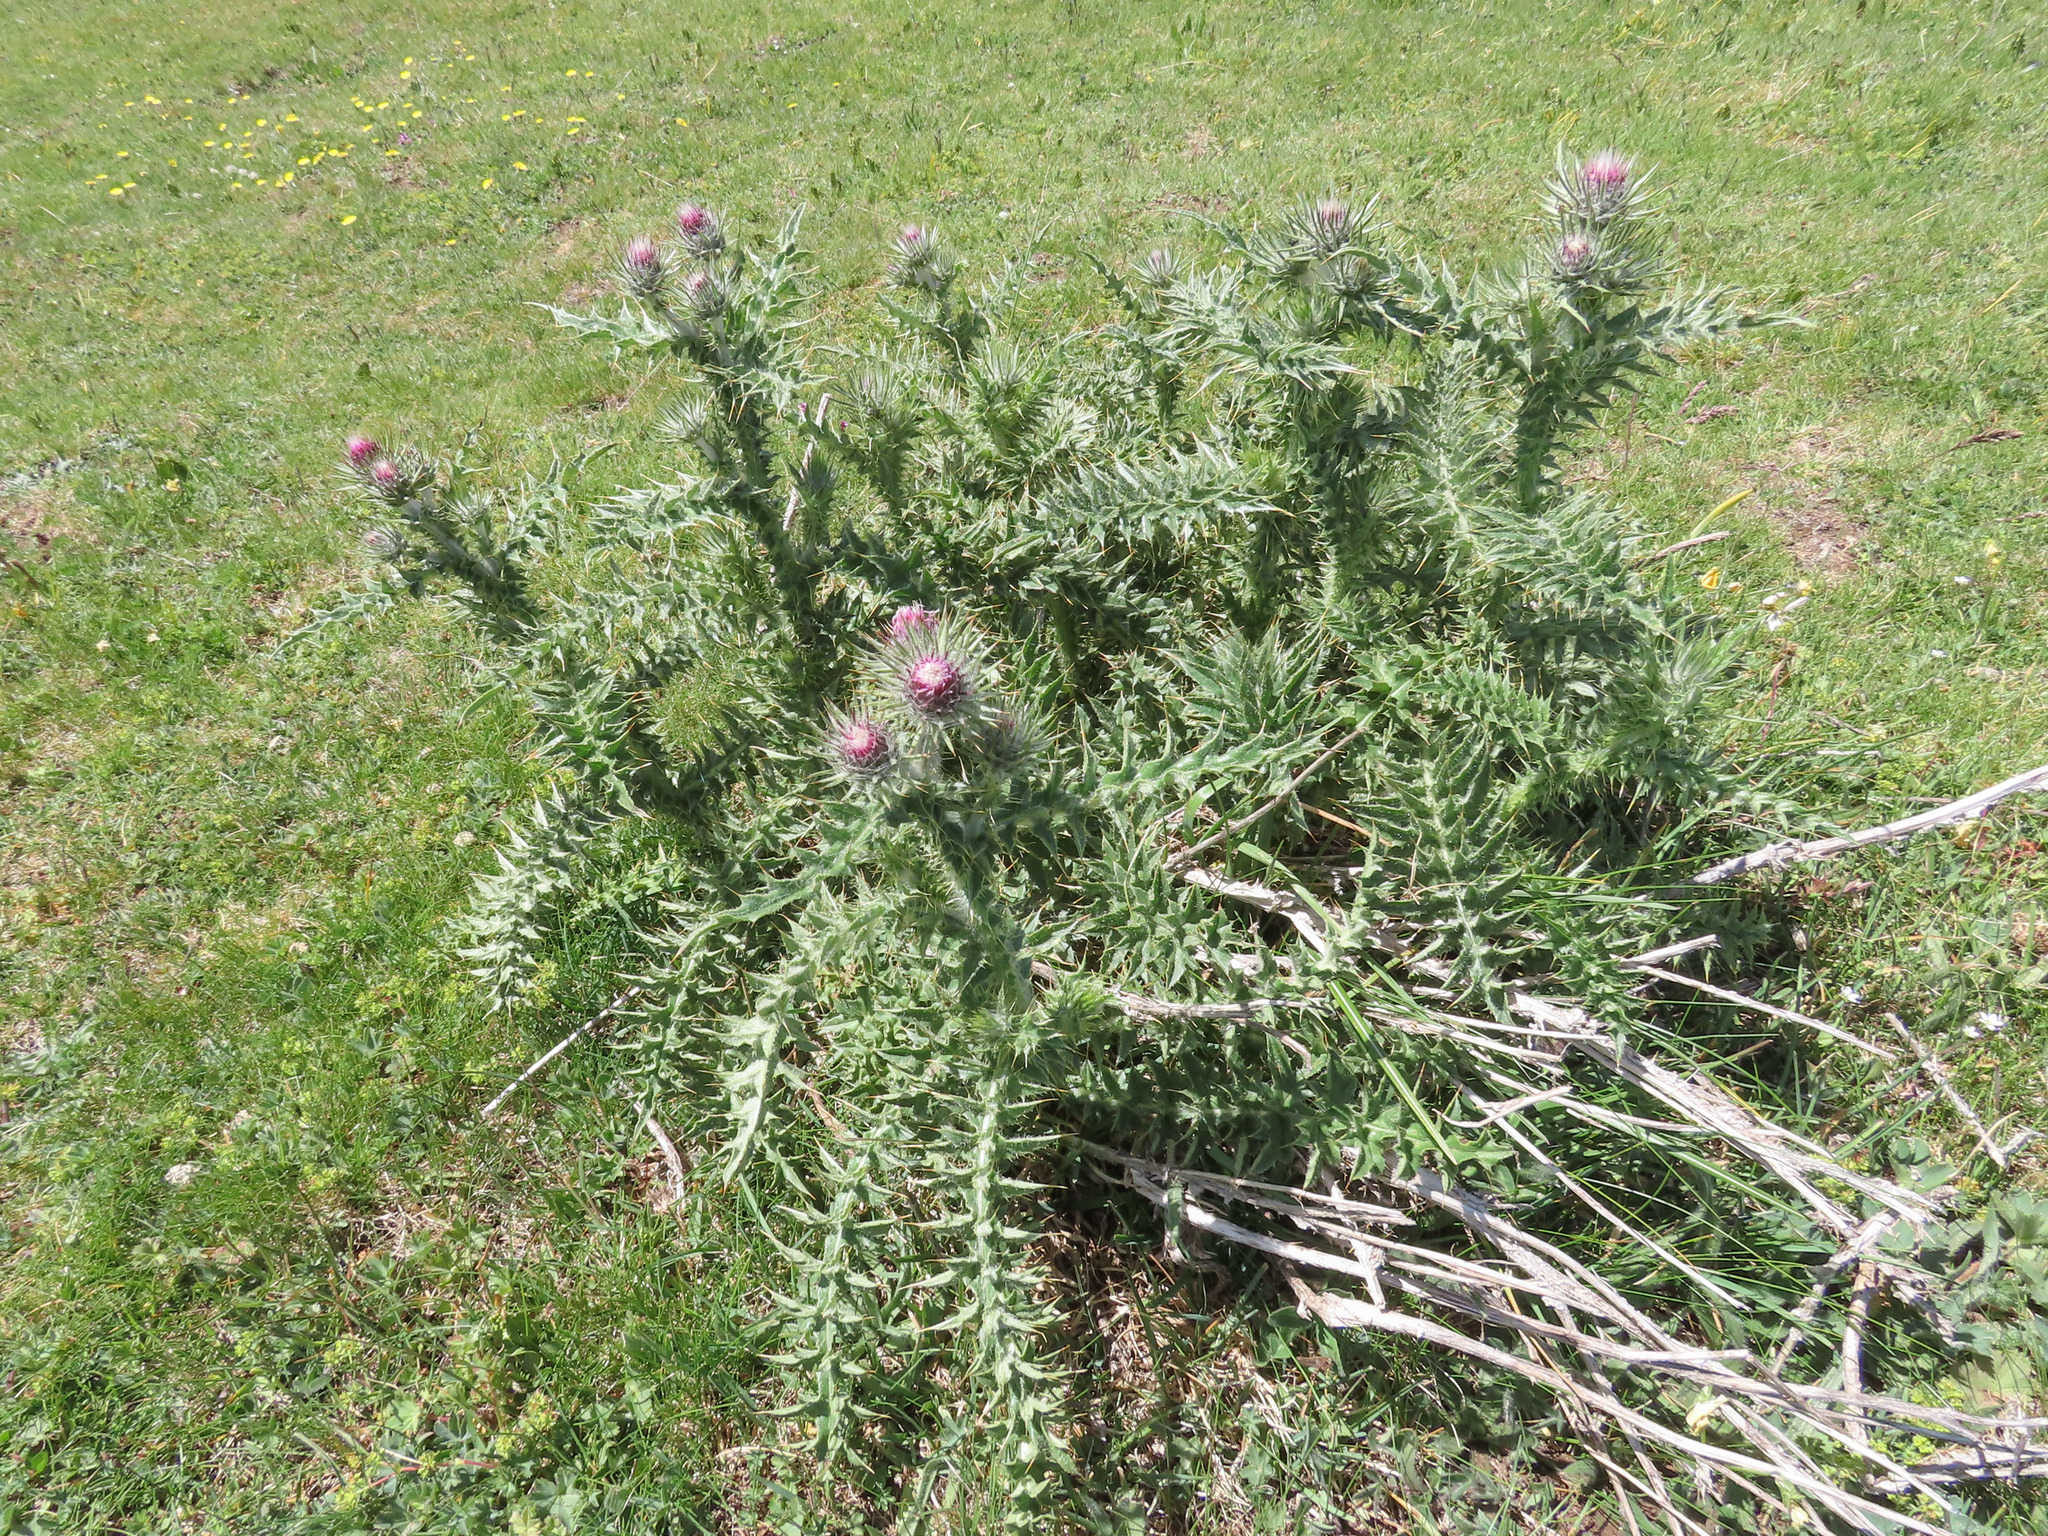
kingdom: Plantae
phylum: Tracheophyta
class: Magnoliopsida
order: Asterales
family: Asteraceae
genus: Carduus
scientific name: Carduus chrysacanthus
